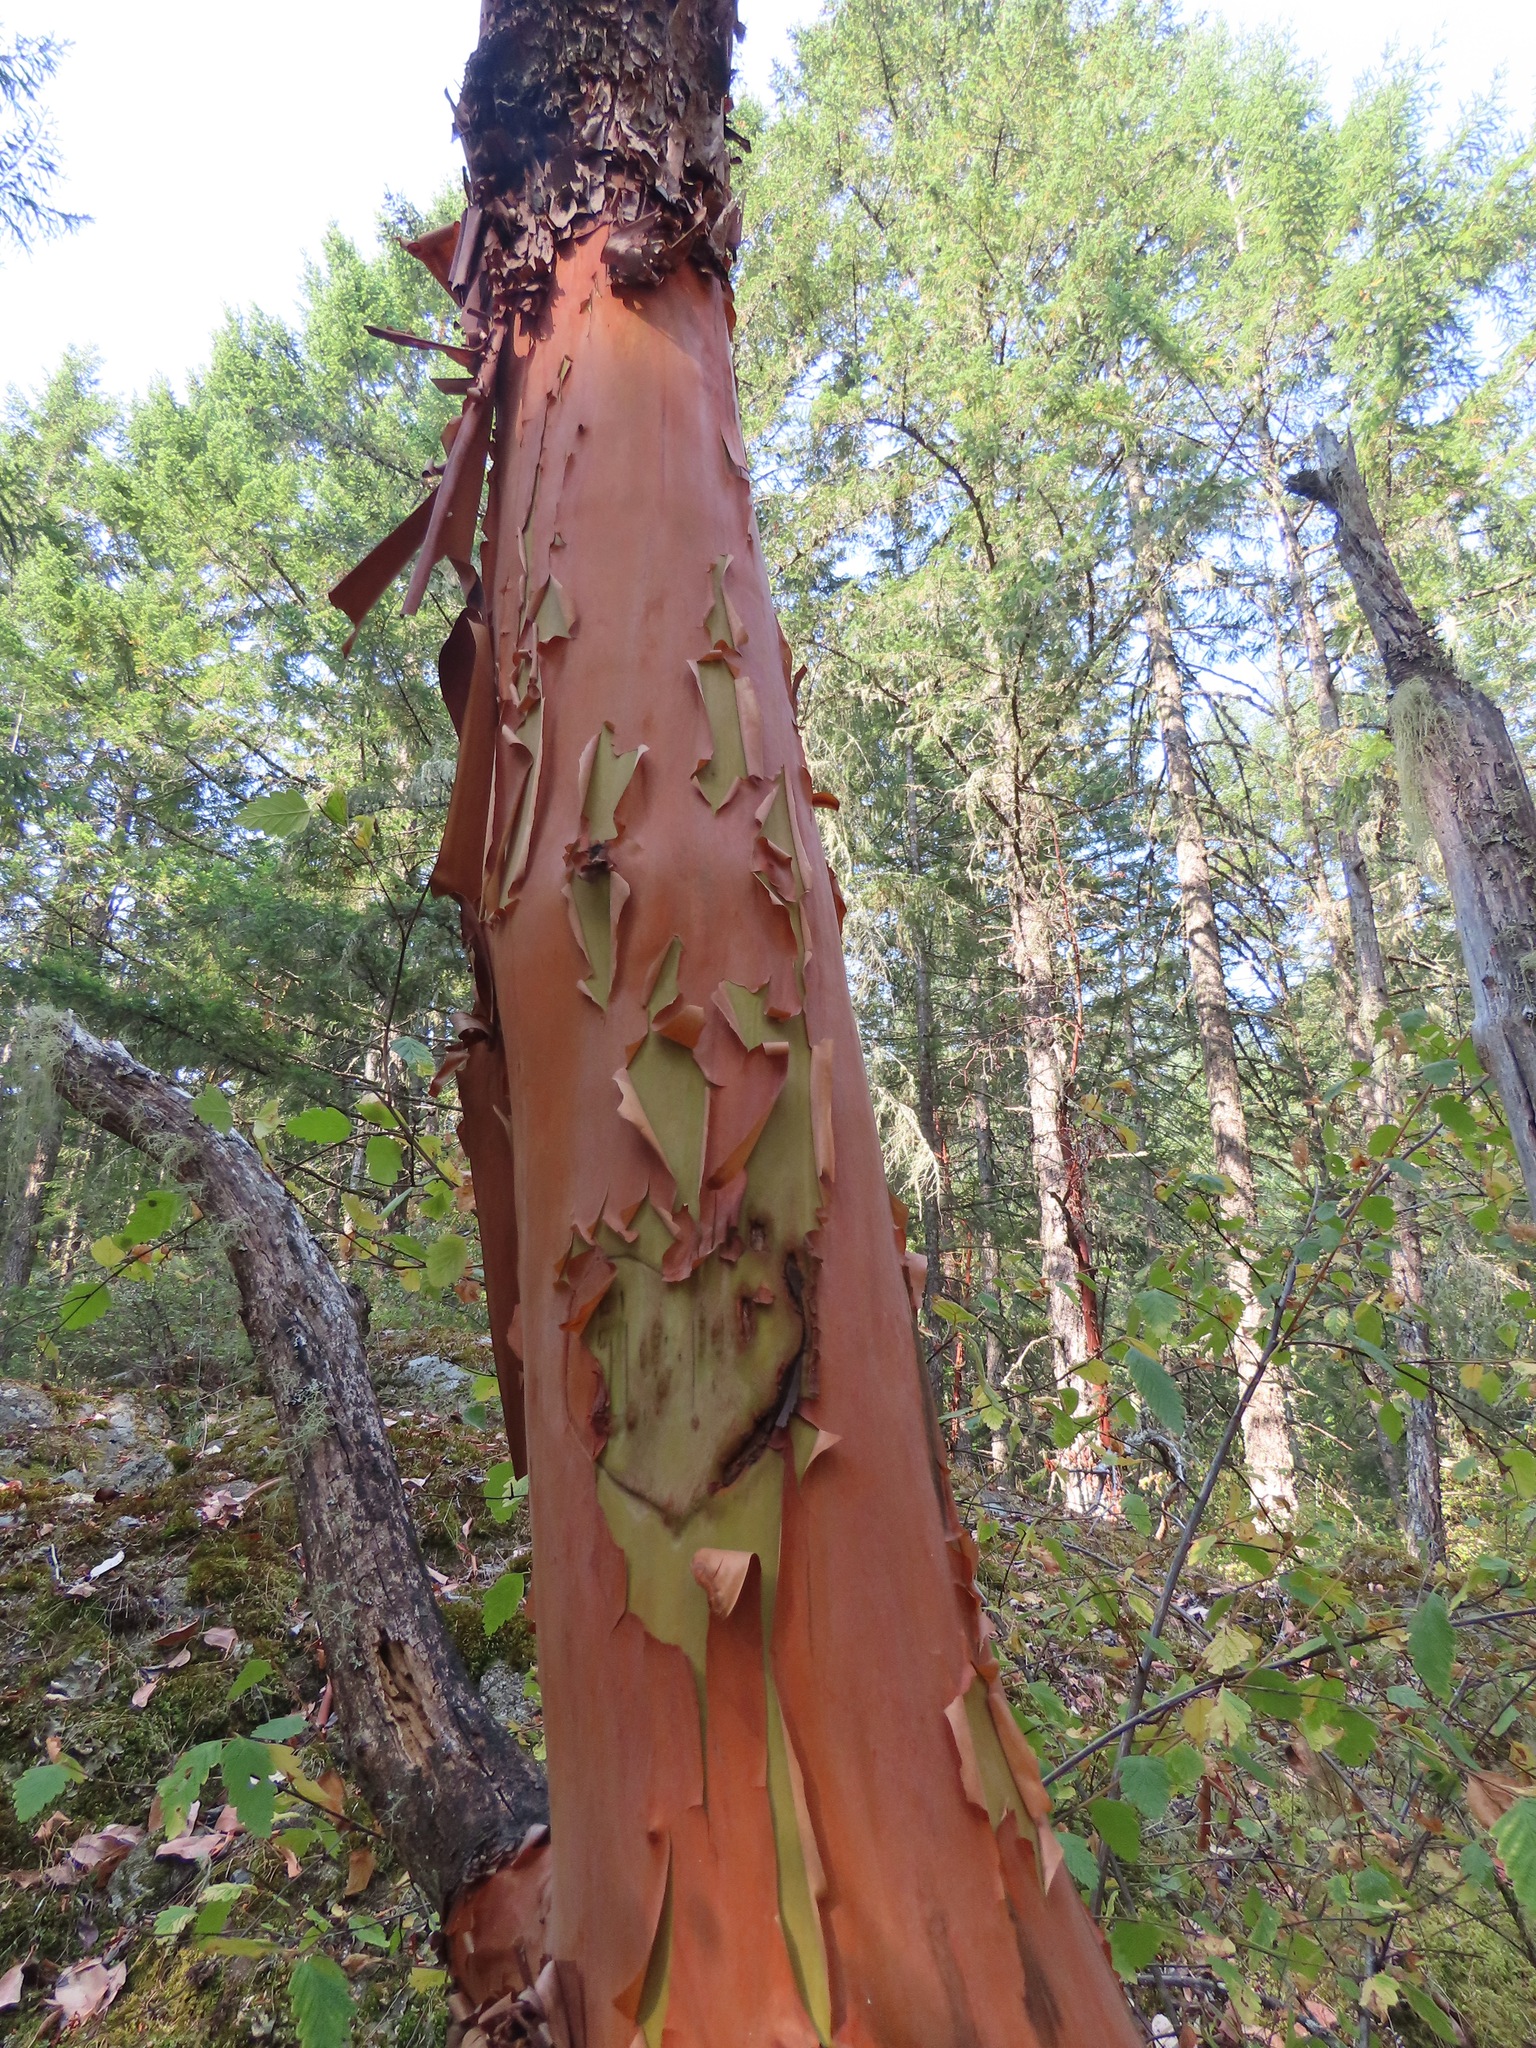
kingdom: Plantae
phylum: Tracheophyta
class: Magnoliopsida
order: Ericales
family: Ericaceae
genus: Arbutus
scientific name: Arbutus menziesii
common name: Pacific madrone
